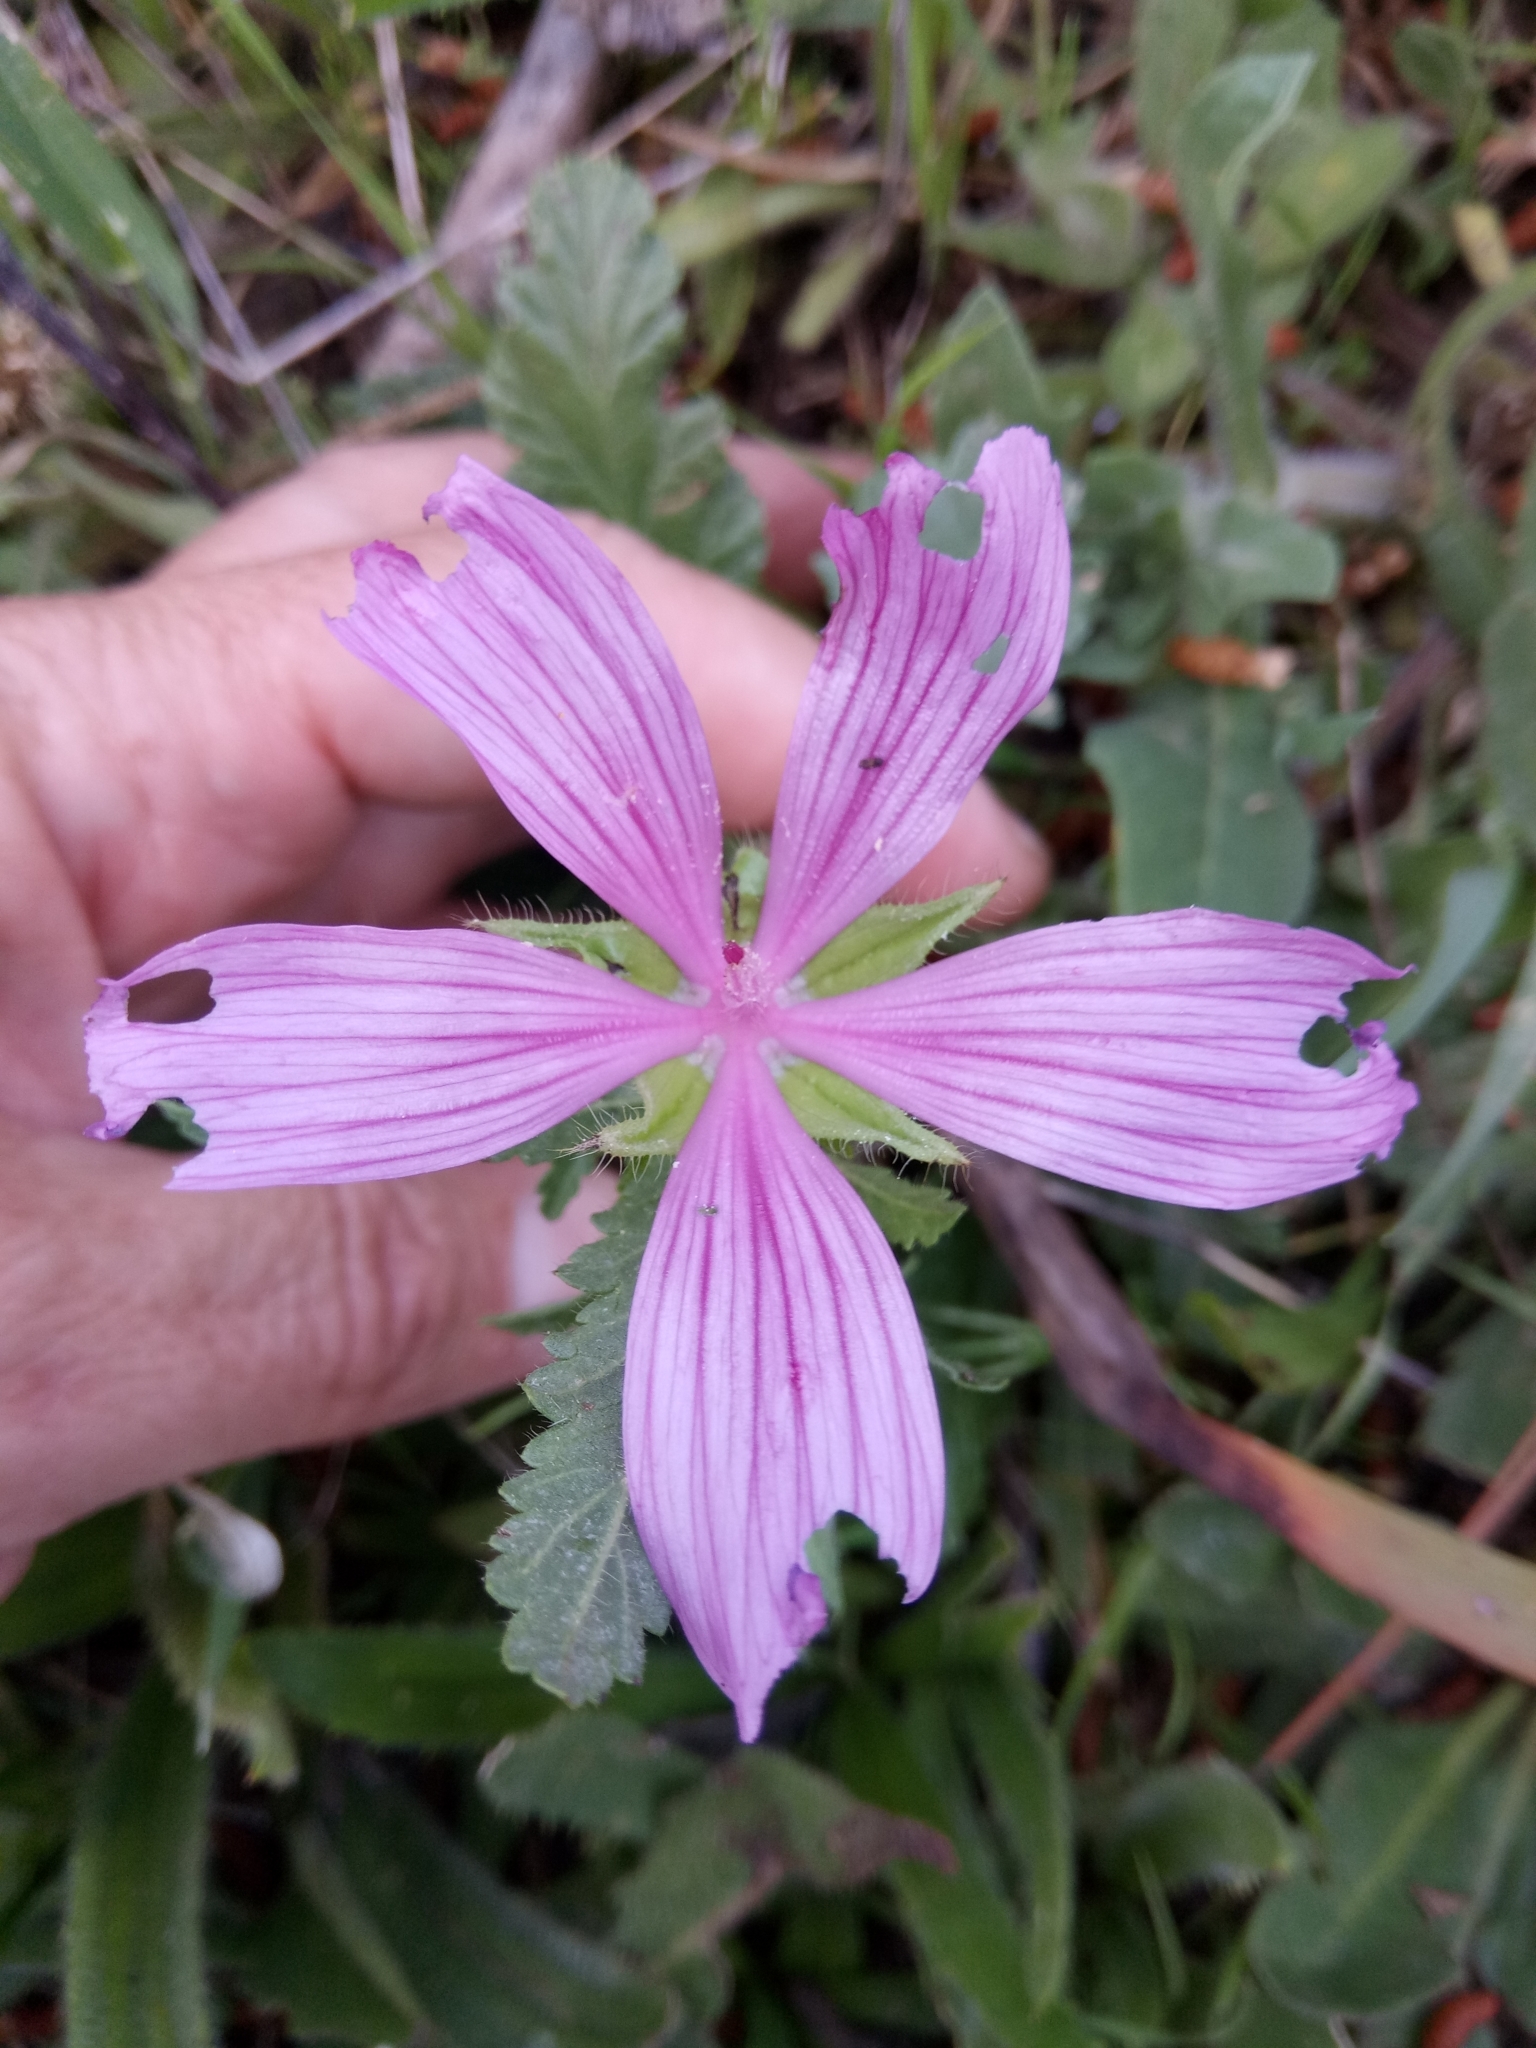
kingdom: Plantae
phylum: Tracheophyta
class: Magnoliopsida
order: Malvales
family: Malvaceae
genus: Malope
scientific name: Malope malacoides
